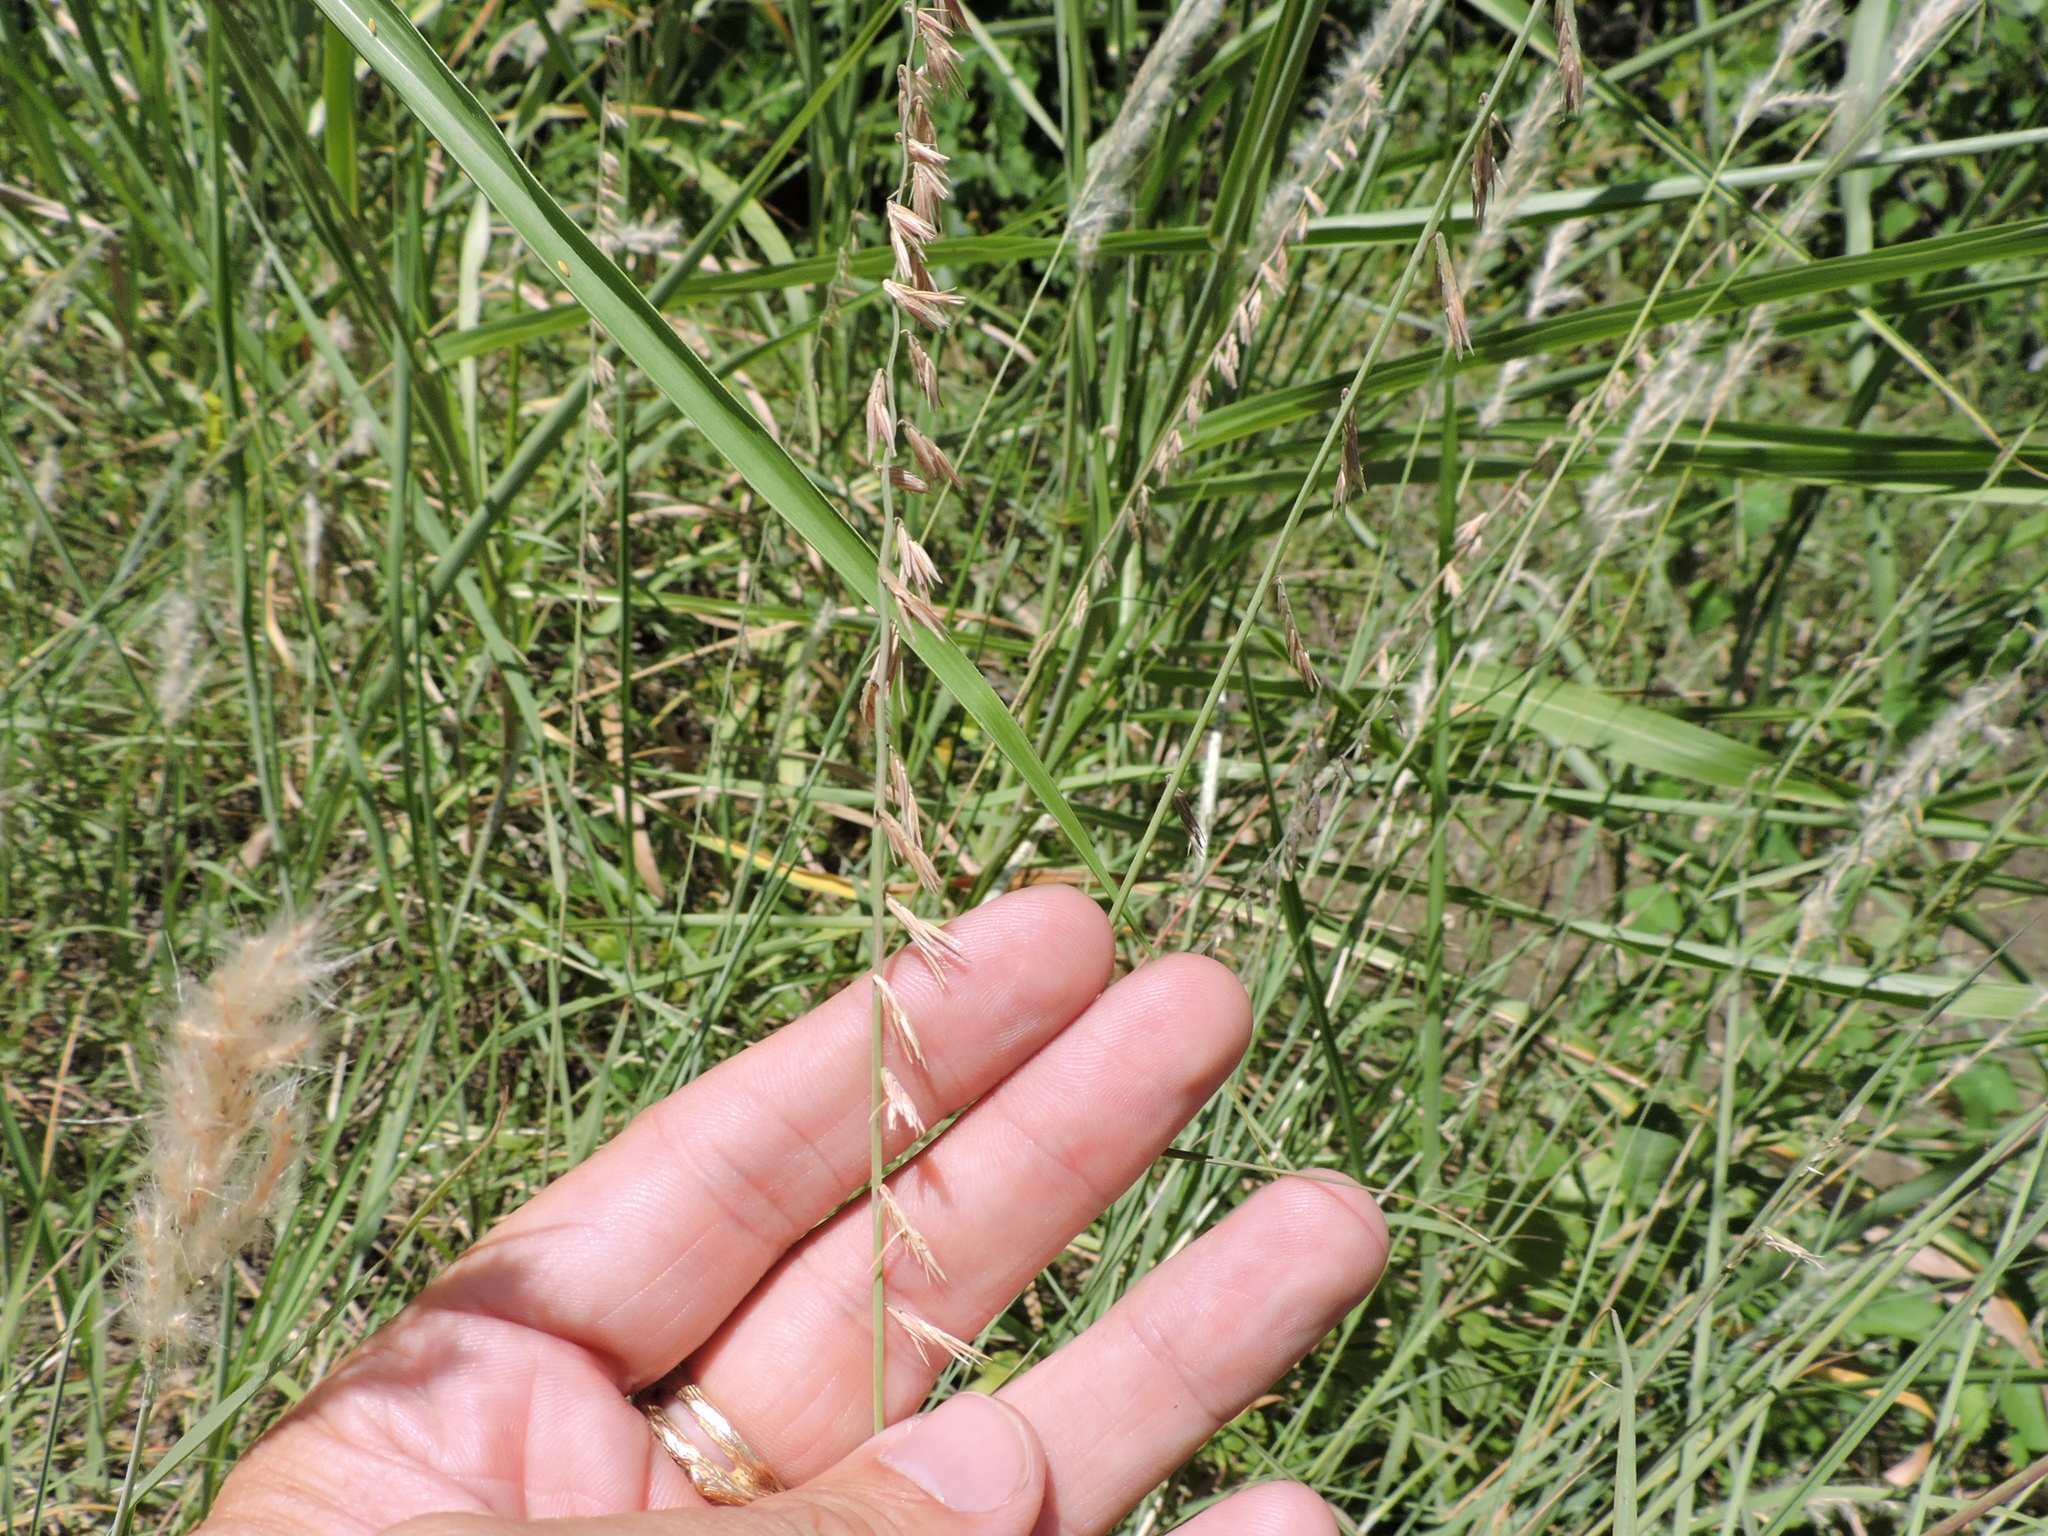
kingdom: Plantae
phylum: Tracheophyta
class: Liliopsida
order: Poales
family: Poaceae
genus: Bouteloua
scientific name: Bouteloua curtipendula
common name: Side-oats grama
